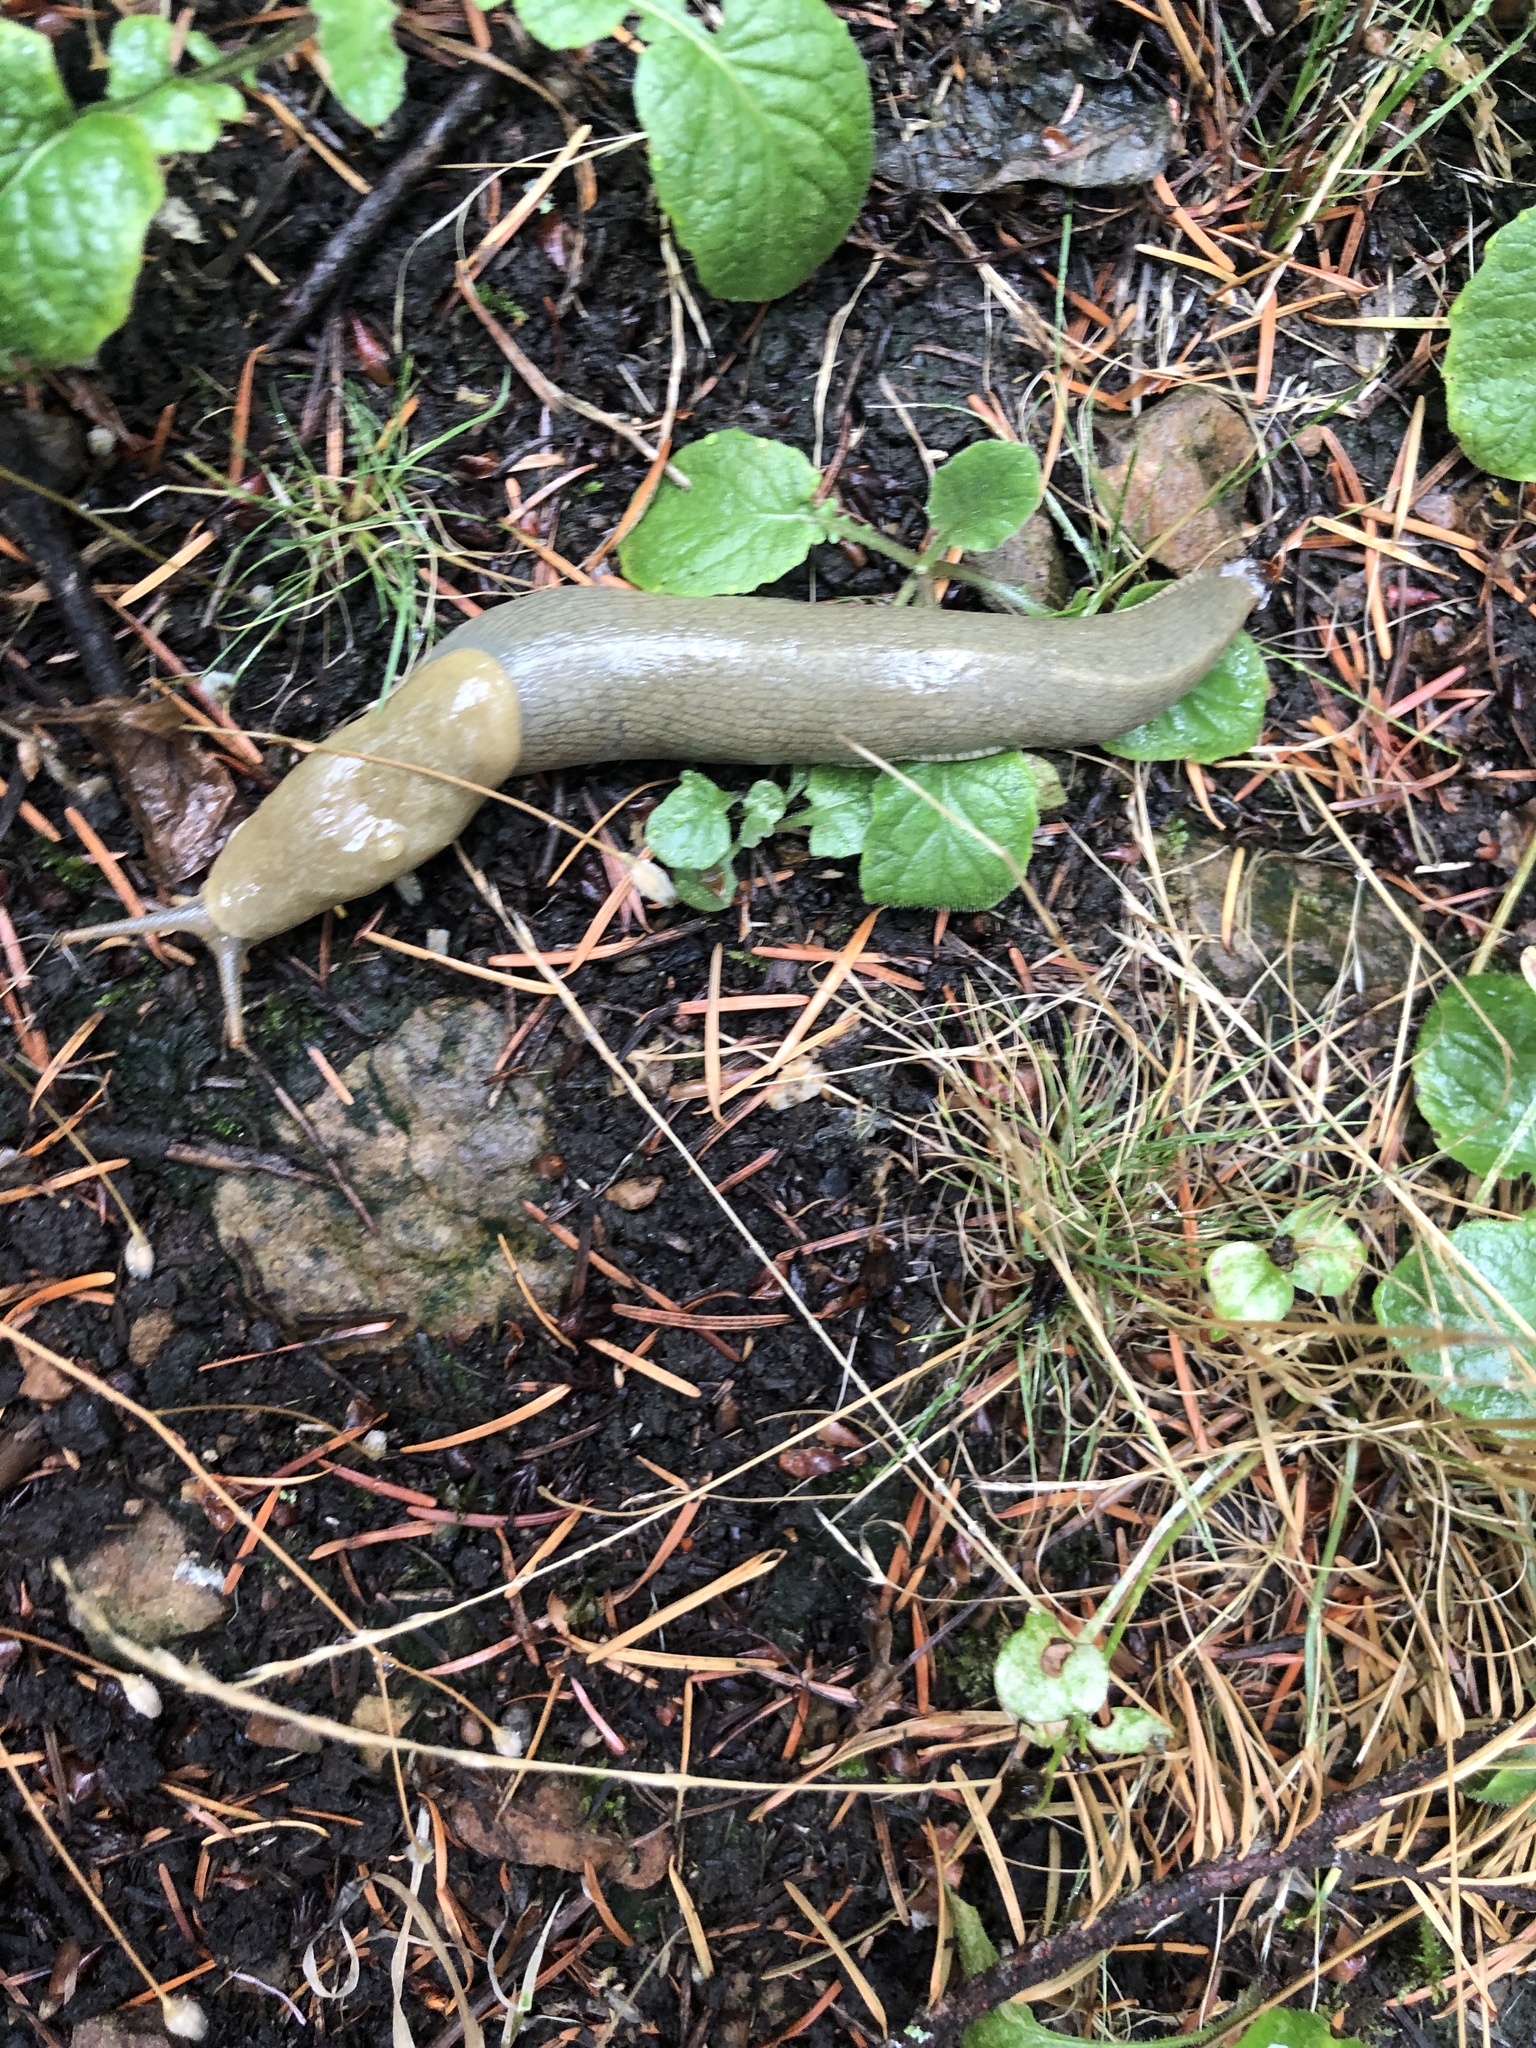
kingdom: Animalia
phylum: Mollusca
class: Gastropoda
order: Stylommatophora
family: Ariolimacidae
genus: Ariolimax
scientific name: Ariolimax columbianus
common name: Pacific banana slug
